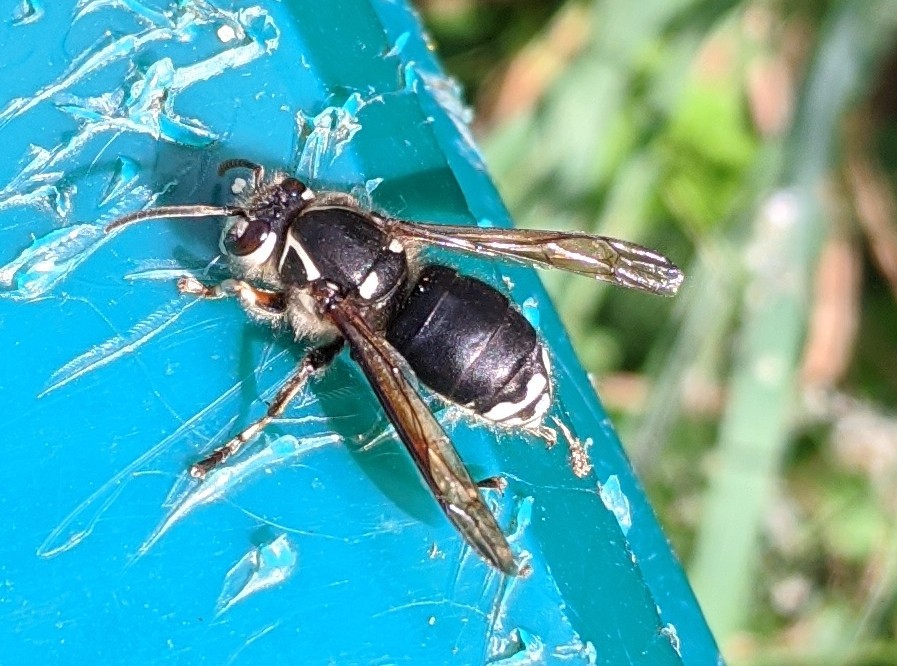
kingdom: Animalia
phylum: Arthropoda
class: Insecta
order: Hymenoptera
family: Vespidae
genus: Dolichovespula
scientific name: Dolichovespula maculata
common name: Bald-faced hornet
